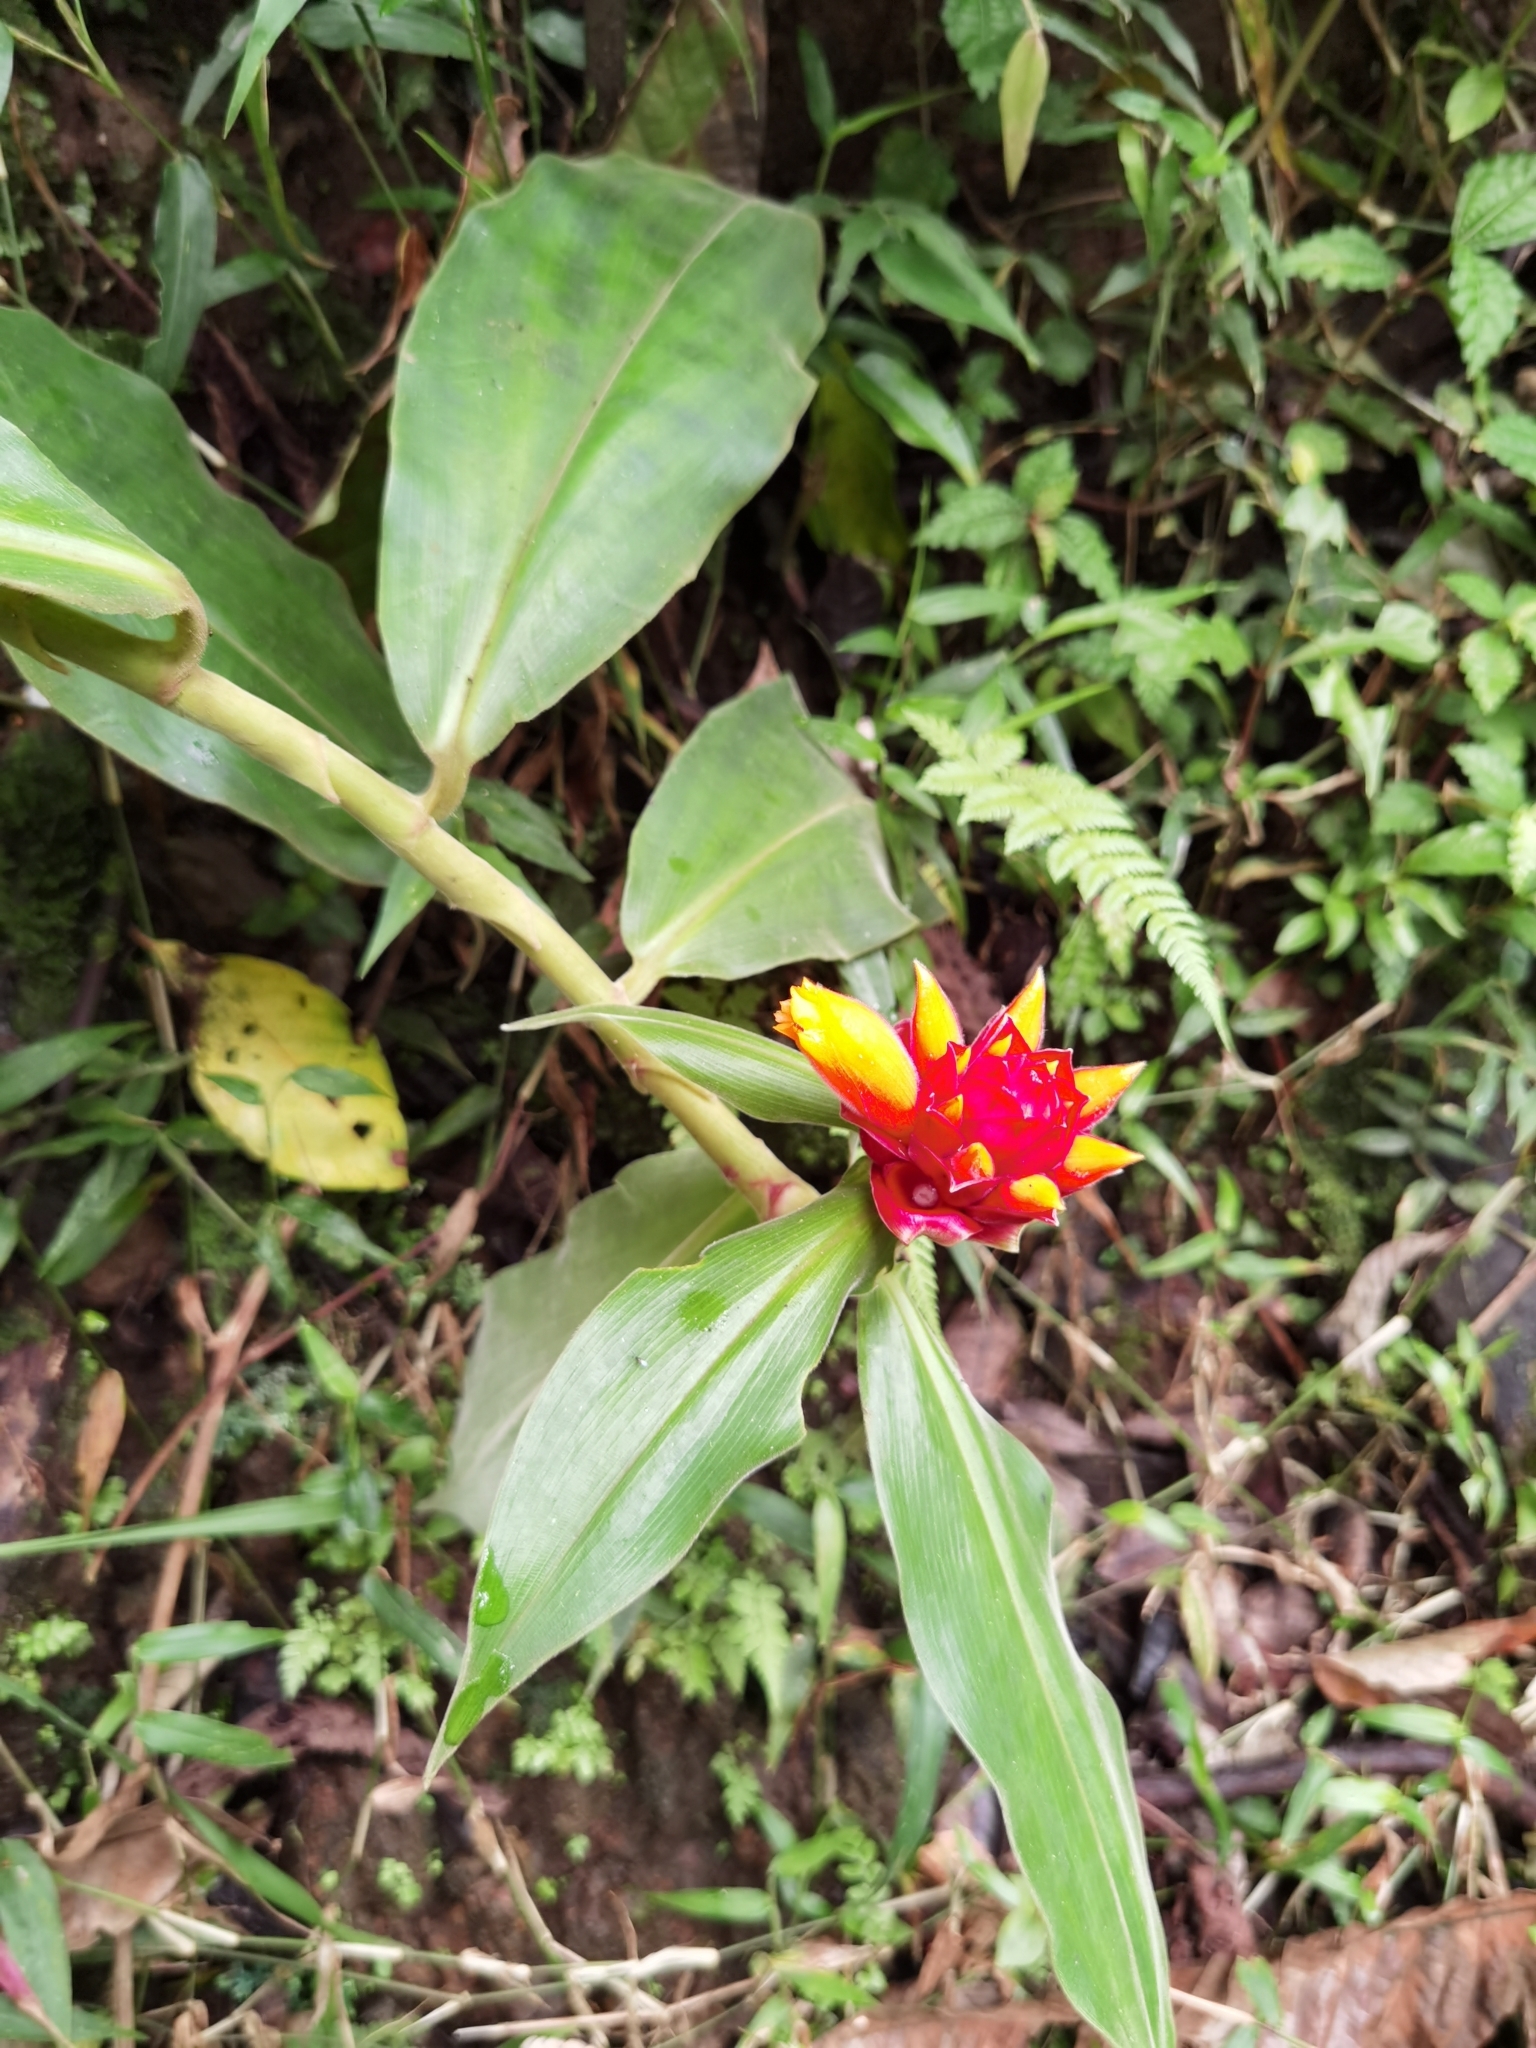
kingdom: Plantae
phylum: Tracheophyta
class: Liliopsida
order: Zingiberales
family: Costaceae
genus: Costus
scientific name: Costus montanus
